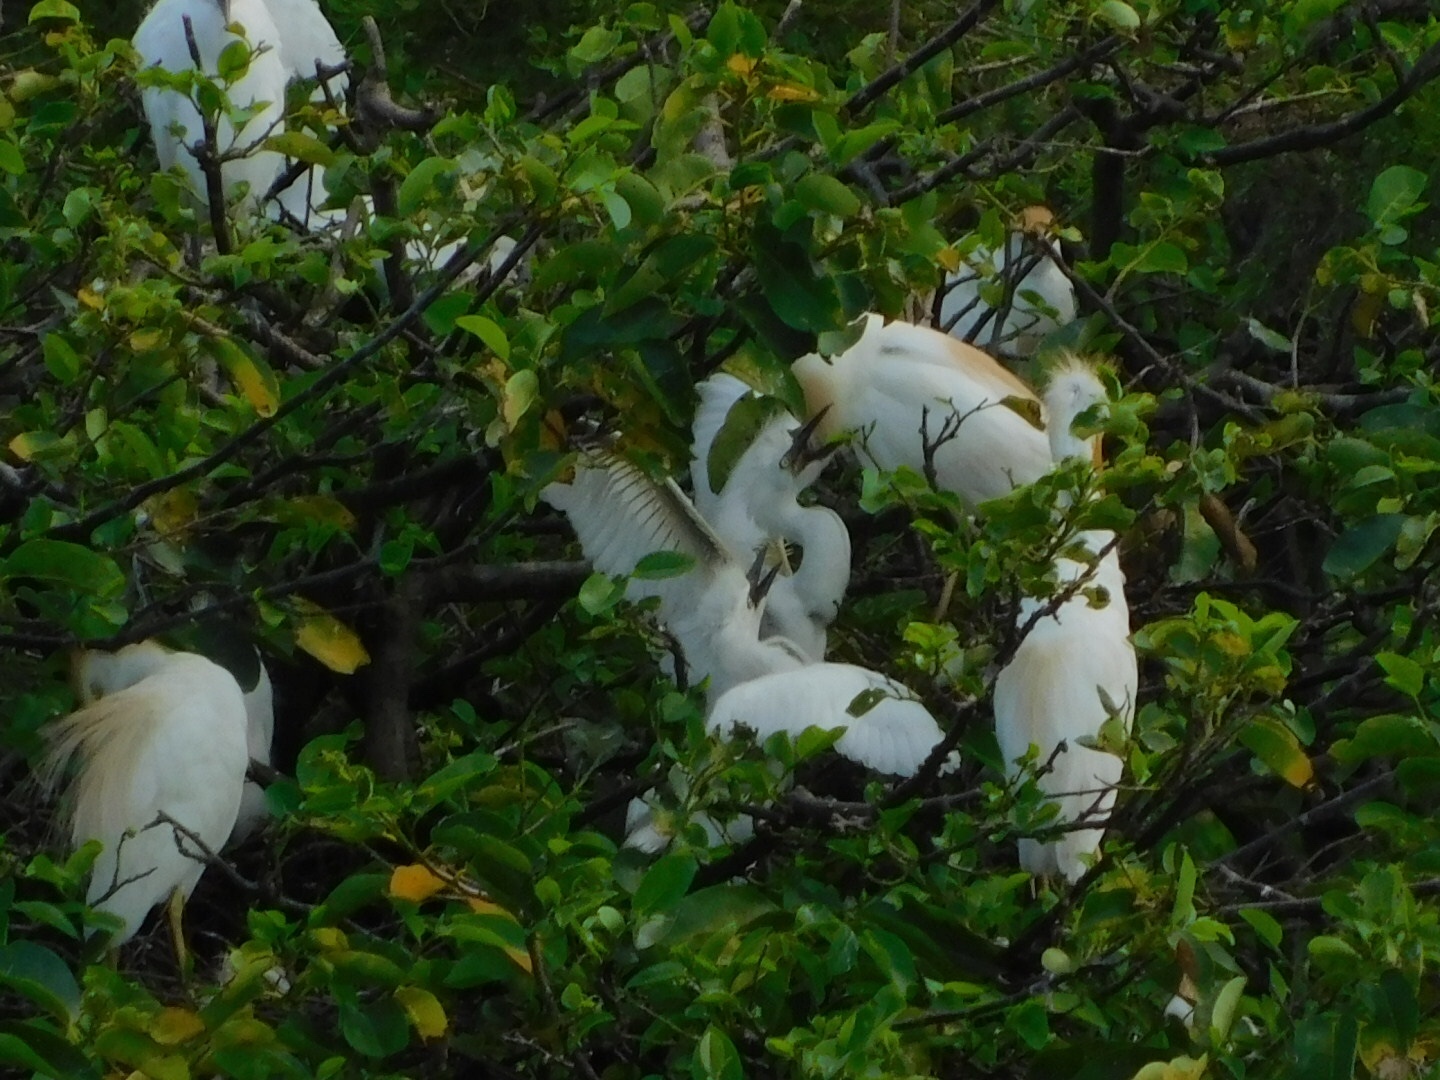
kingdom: Animalia
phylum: Chordata
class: Aves
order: Pelecaniformes
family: Ardeidae
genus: Bubulcus
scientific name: Bubulcus ibis
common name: Cattle egret
